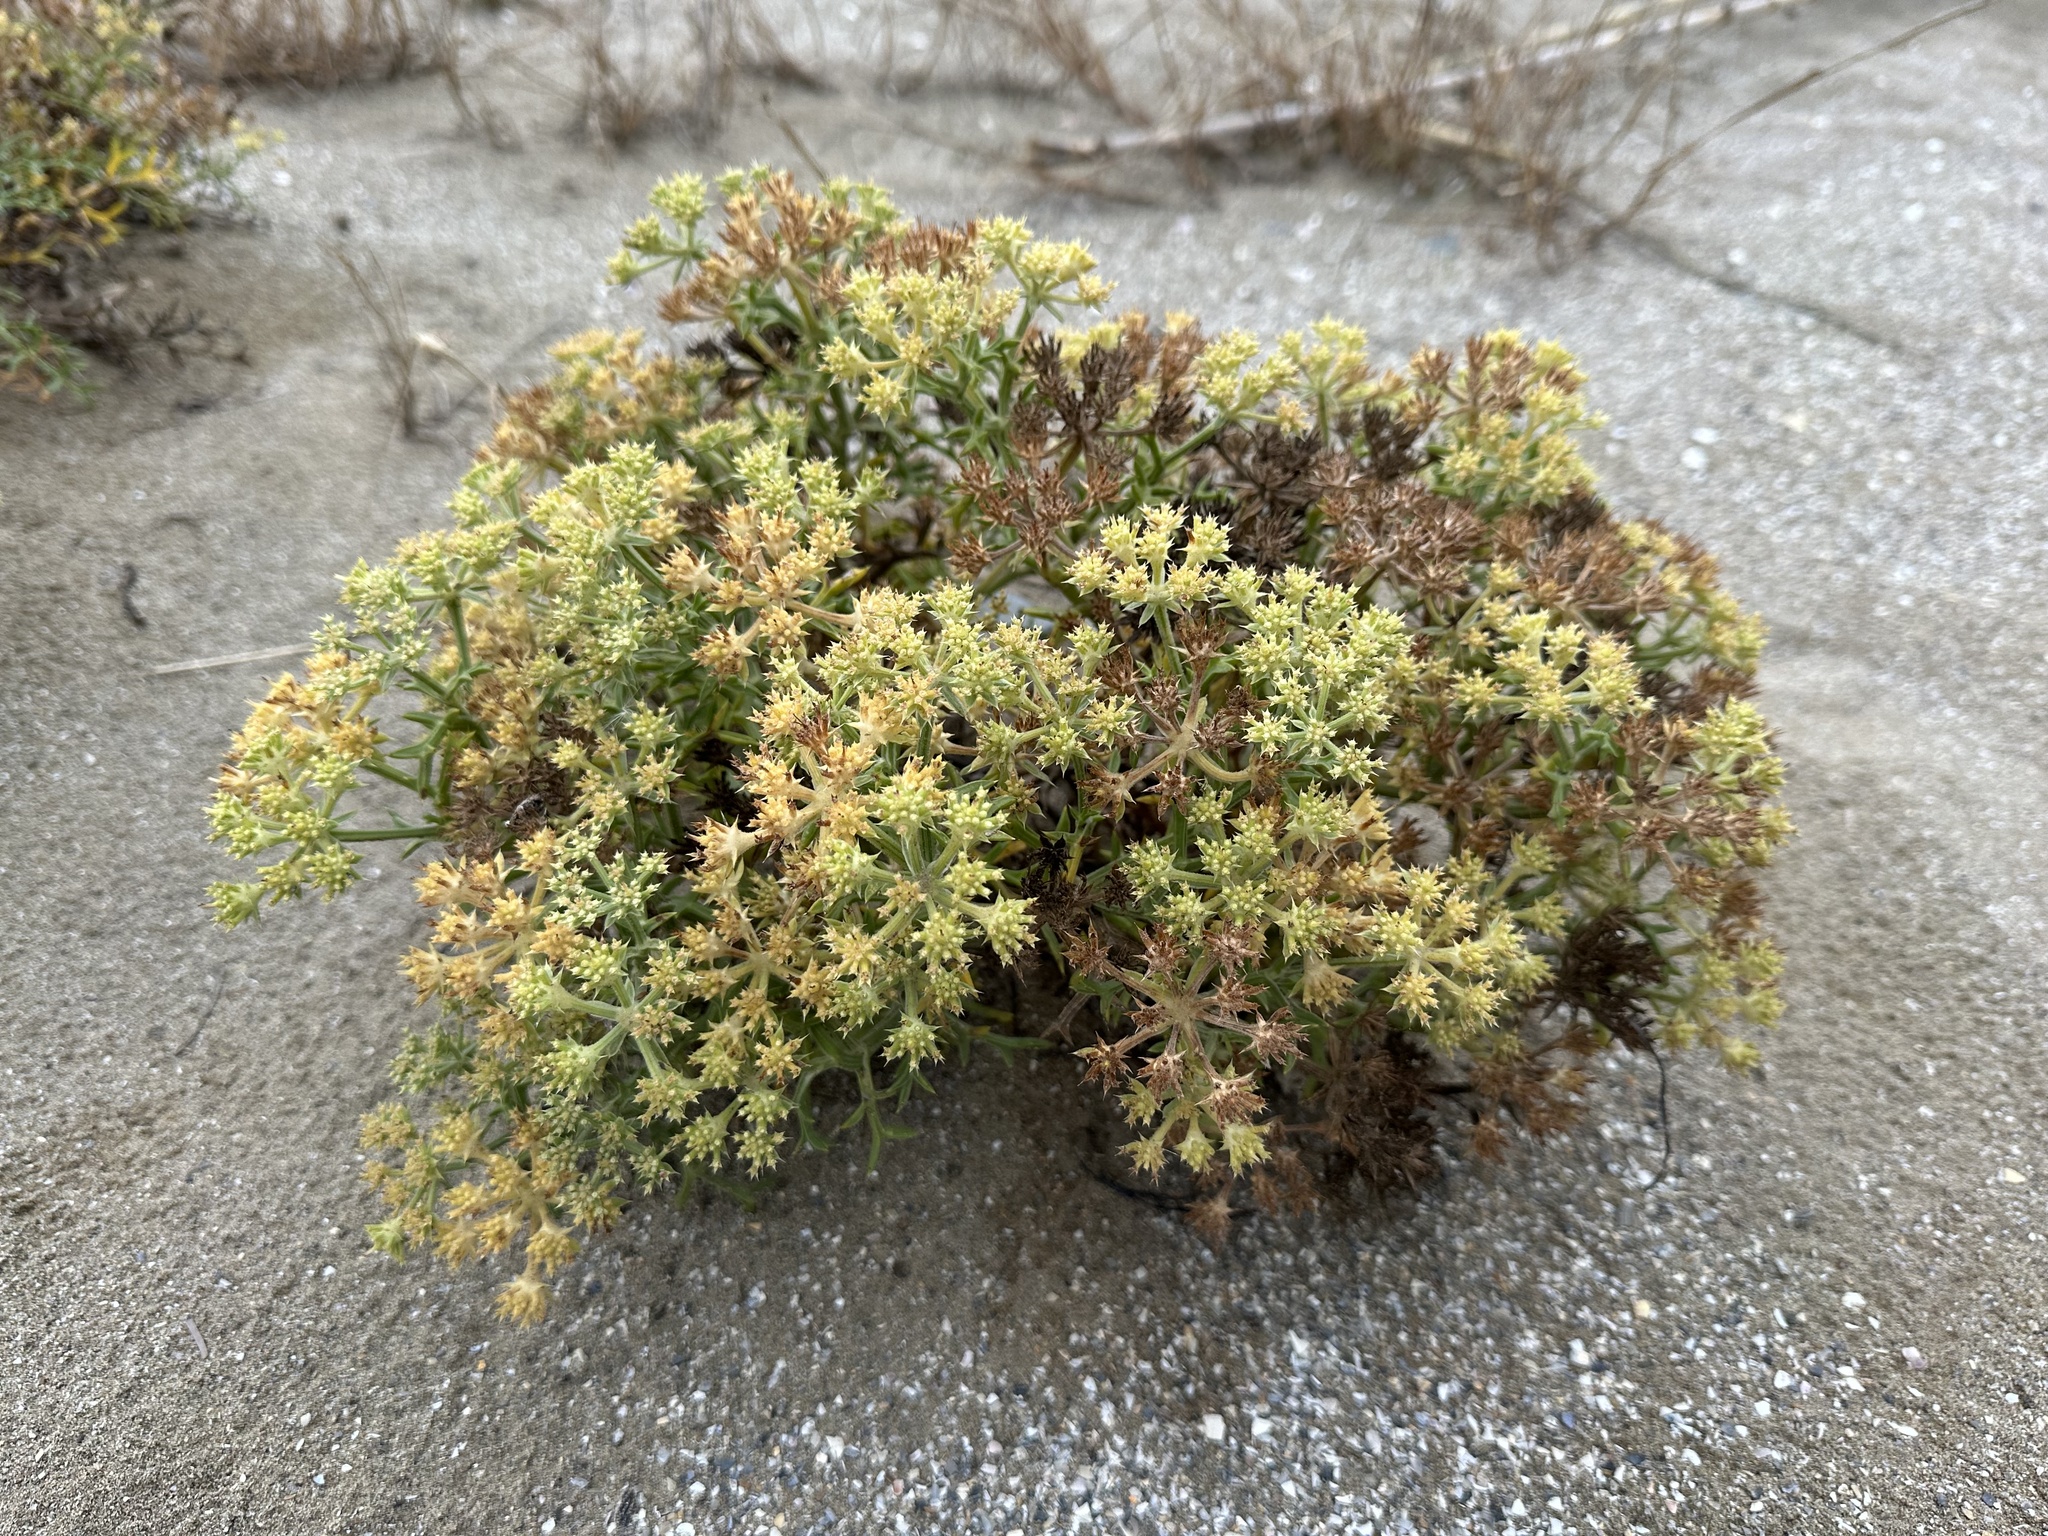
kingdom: Plantae
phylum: Tracheophyta
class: Magnoliopsida
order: Apiales
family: Apiaceae
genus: Echinophora
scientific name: Echinophora spinosa
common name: Prickly samphire
